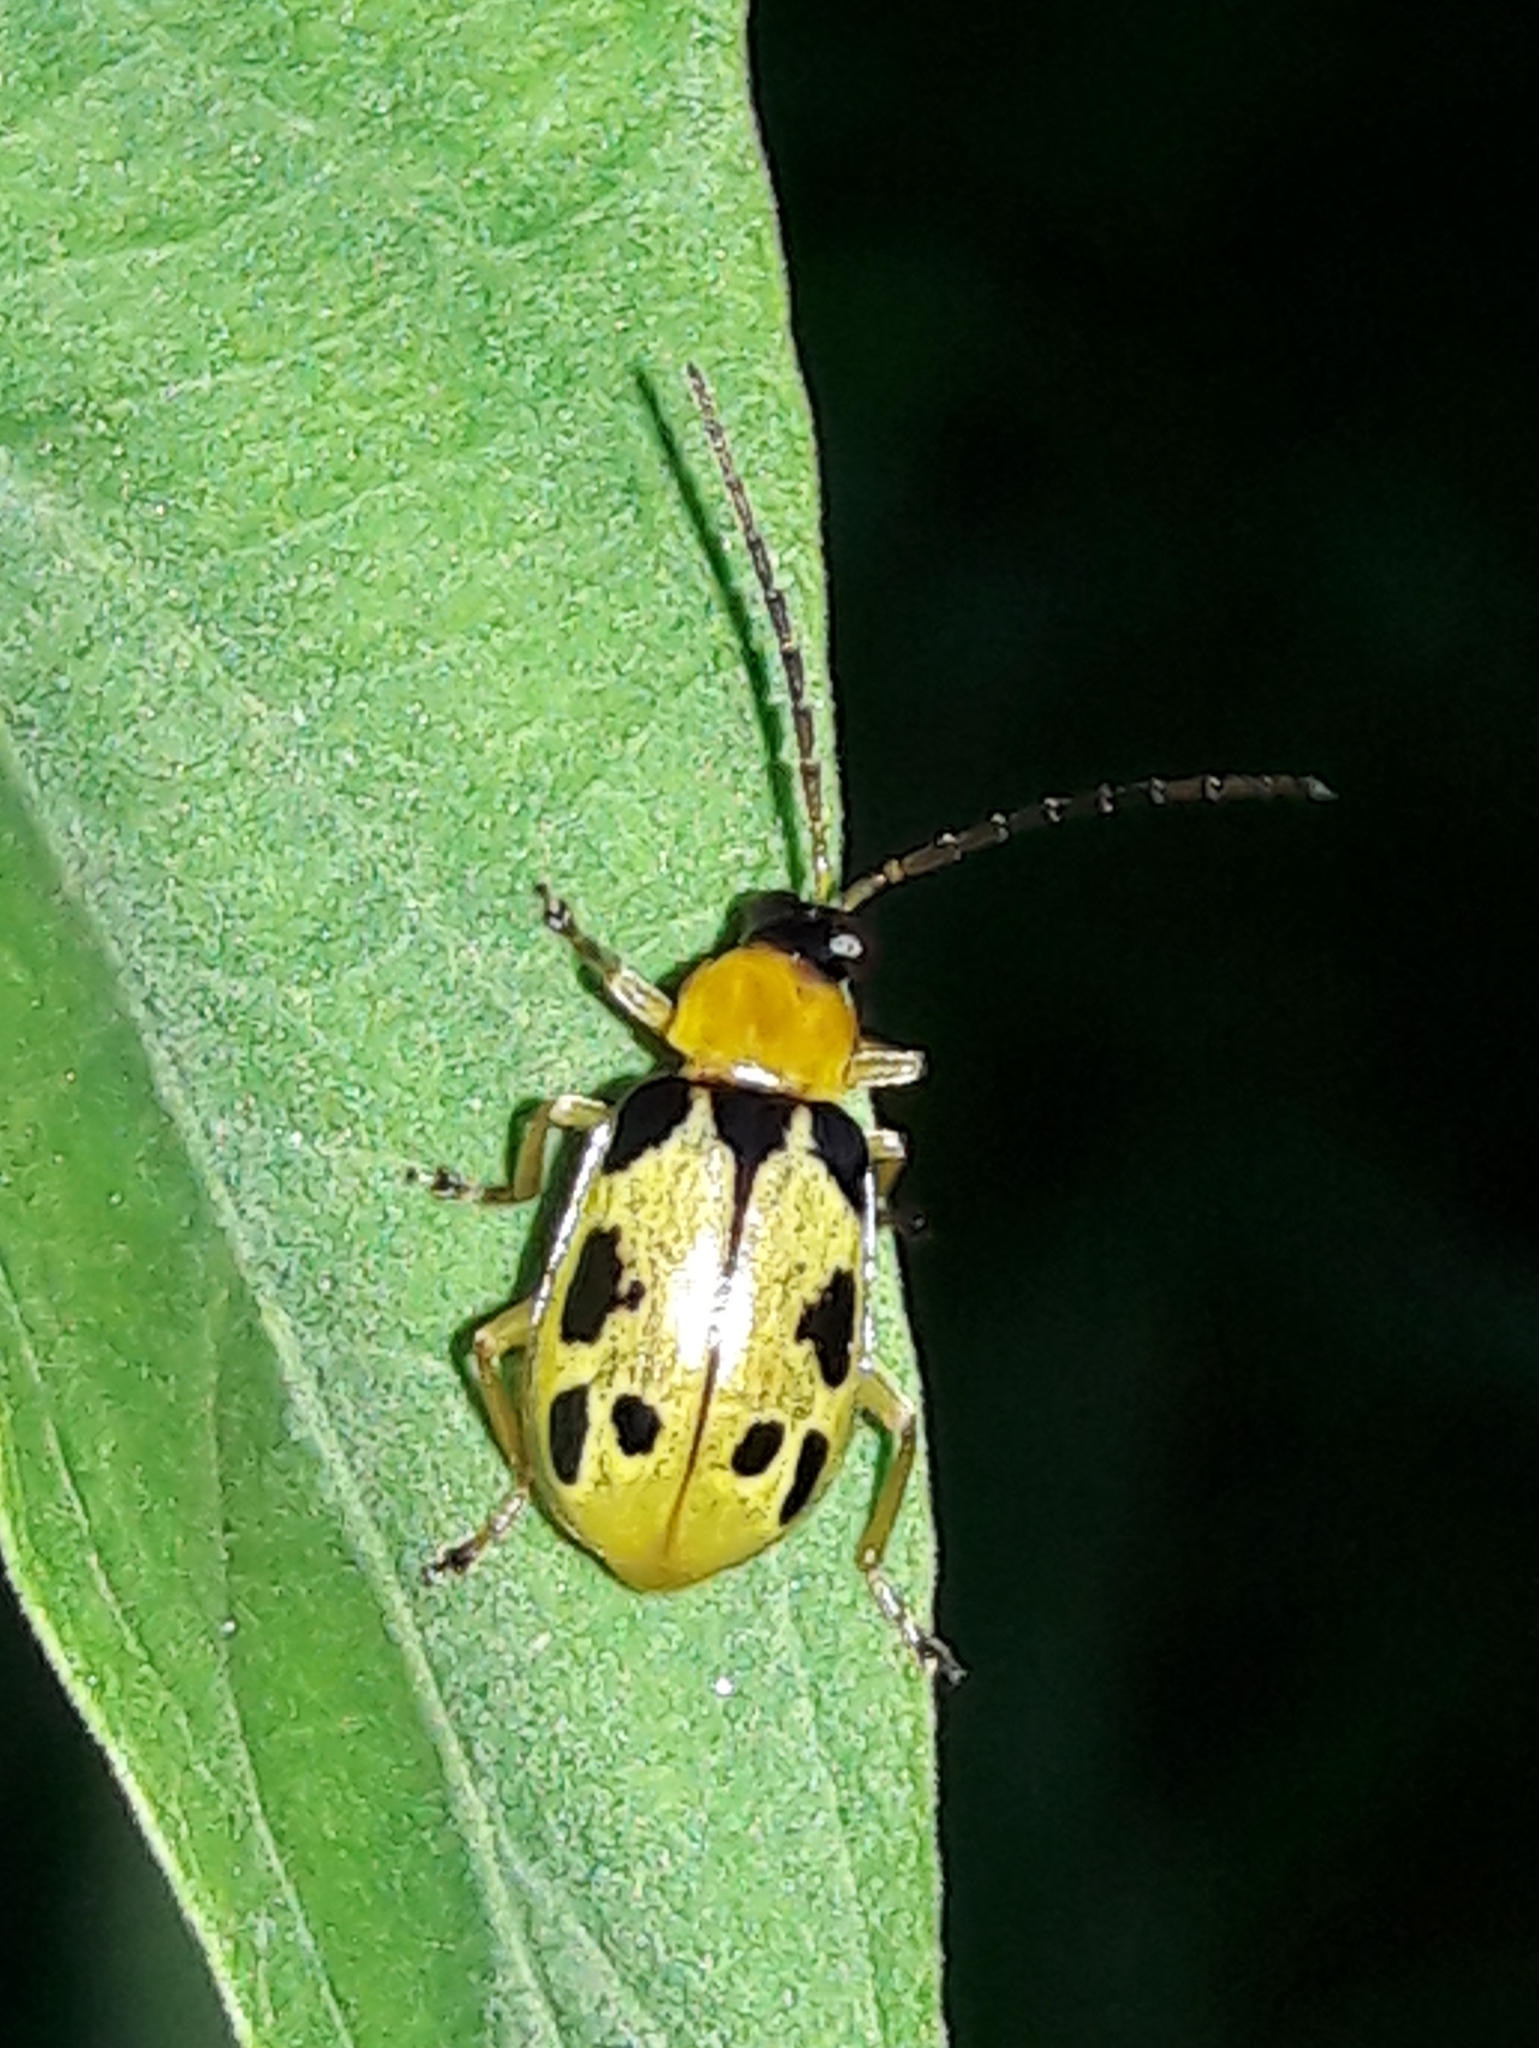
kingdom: Animalia
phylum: Arthropoda
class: Insecta
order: Coleoptera
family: Chrysomelidae
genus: Basiprionota
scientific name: Basiprionota sinuata
